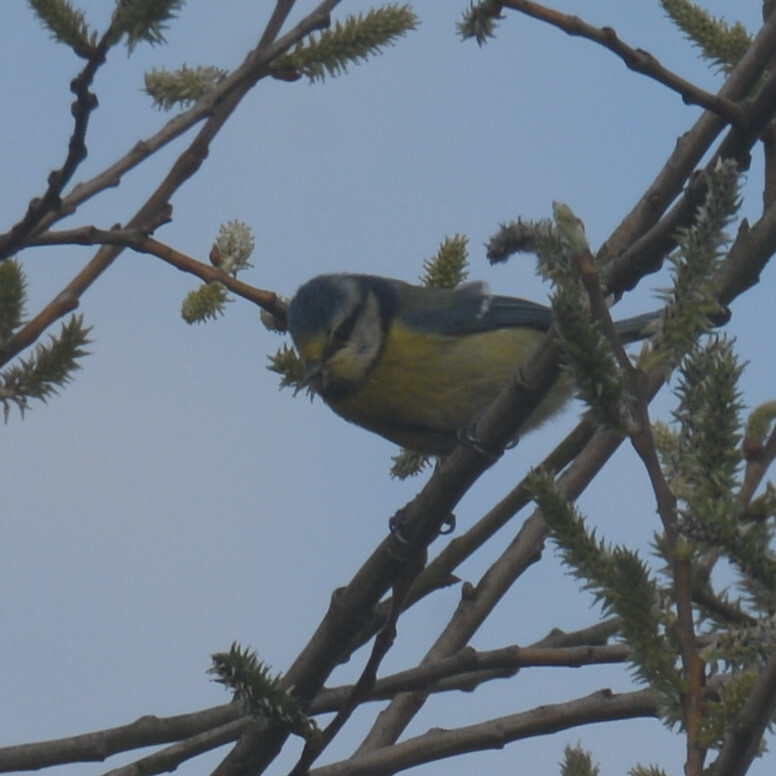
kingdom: Animalia
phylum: Chordata
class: Aves
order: Passeriformes
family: Paridae
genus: Cyanistes
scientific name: Cyanistes caeruleus
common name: Eurasian blue tit
